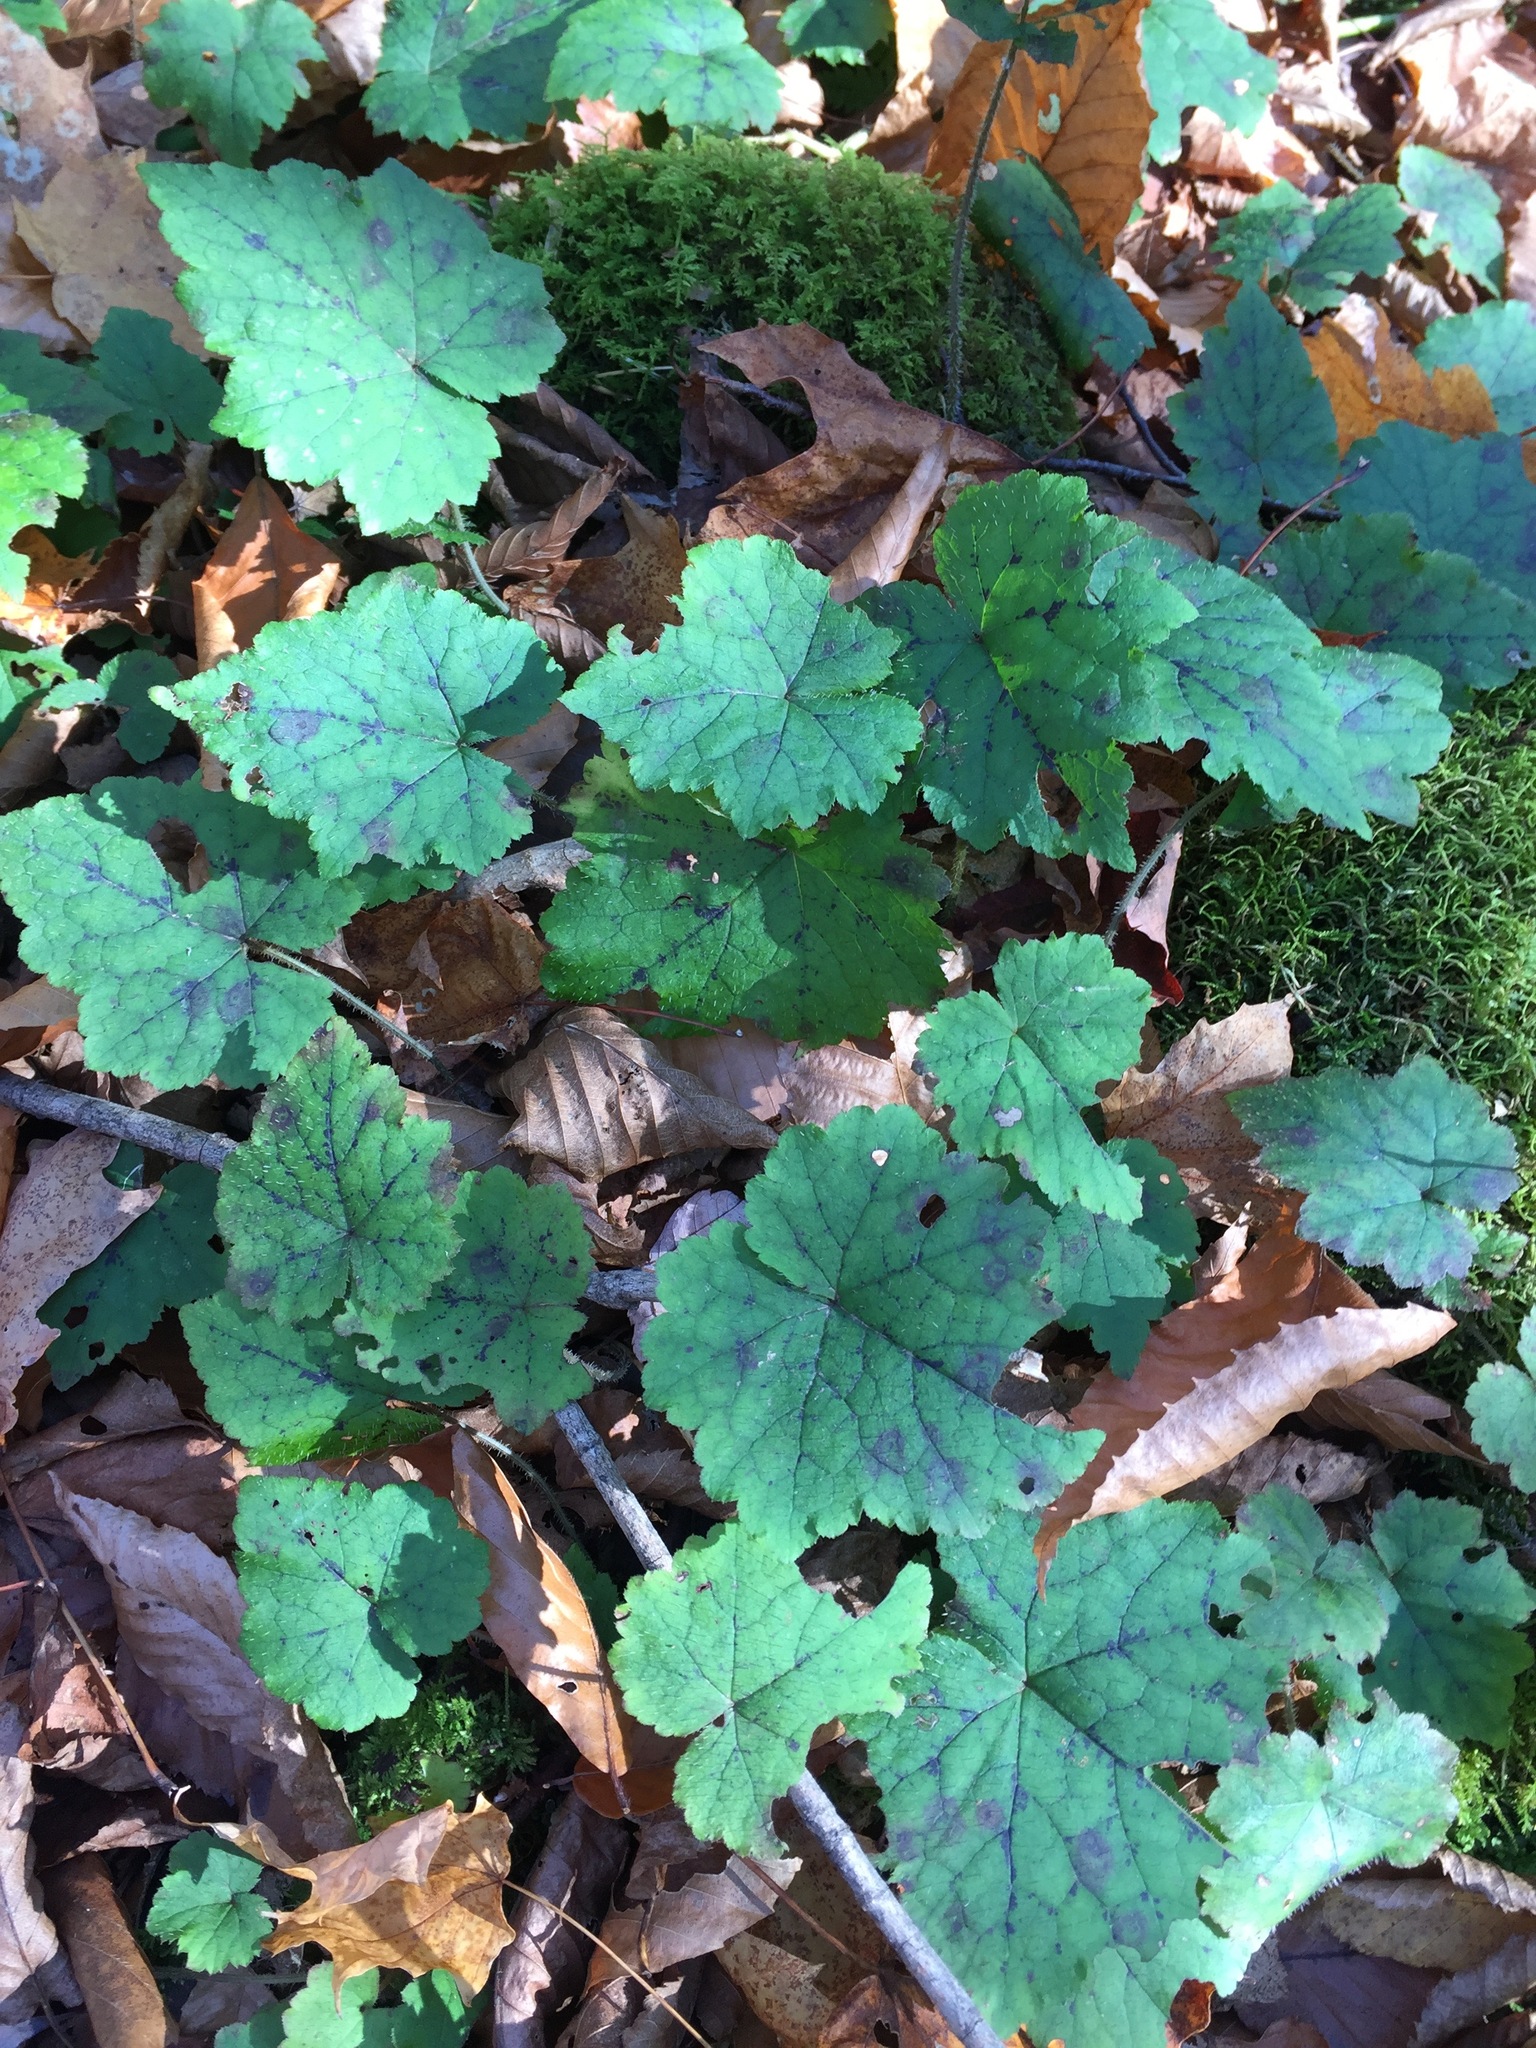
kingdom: Plantae
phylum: Tracheophyta
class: Magnoliopsida
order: Saxifragales
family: Saxifragaceae
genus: Tiarella
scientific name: Tiarella stolonifera
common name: Stoloniferous foamflower
